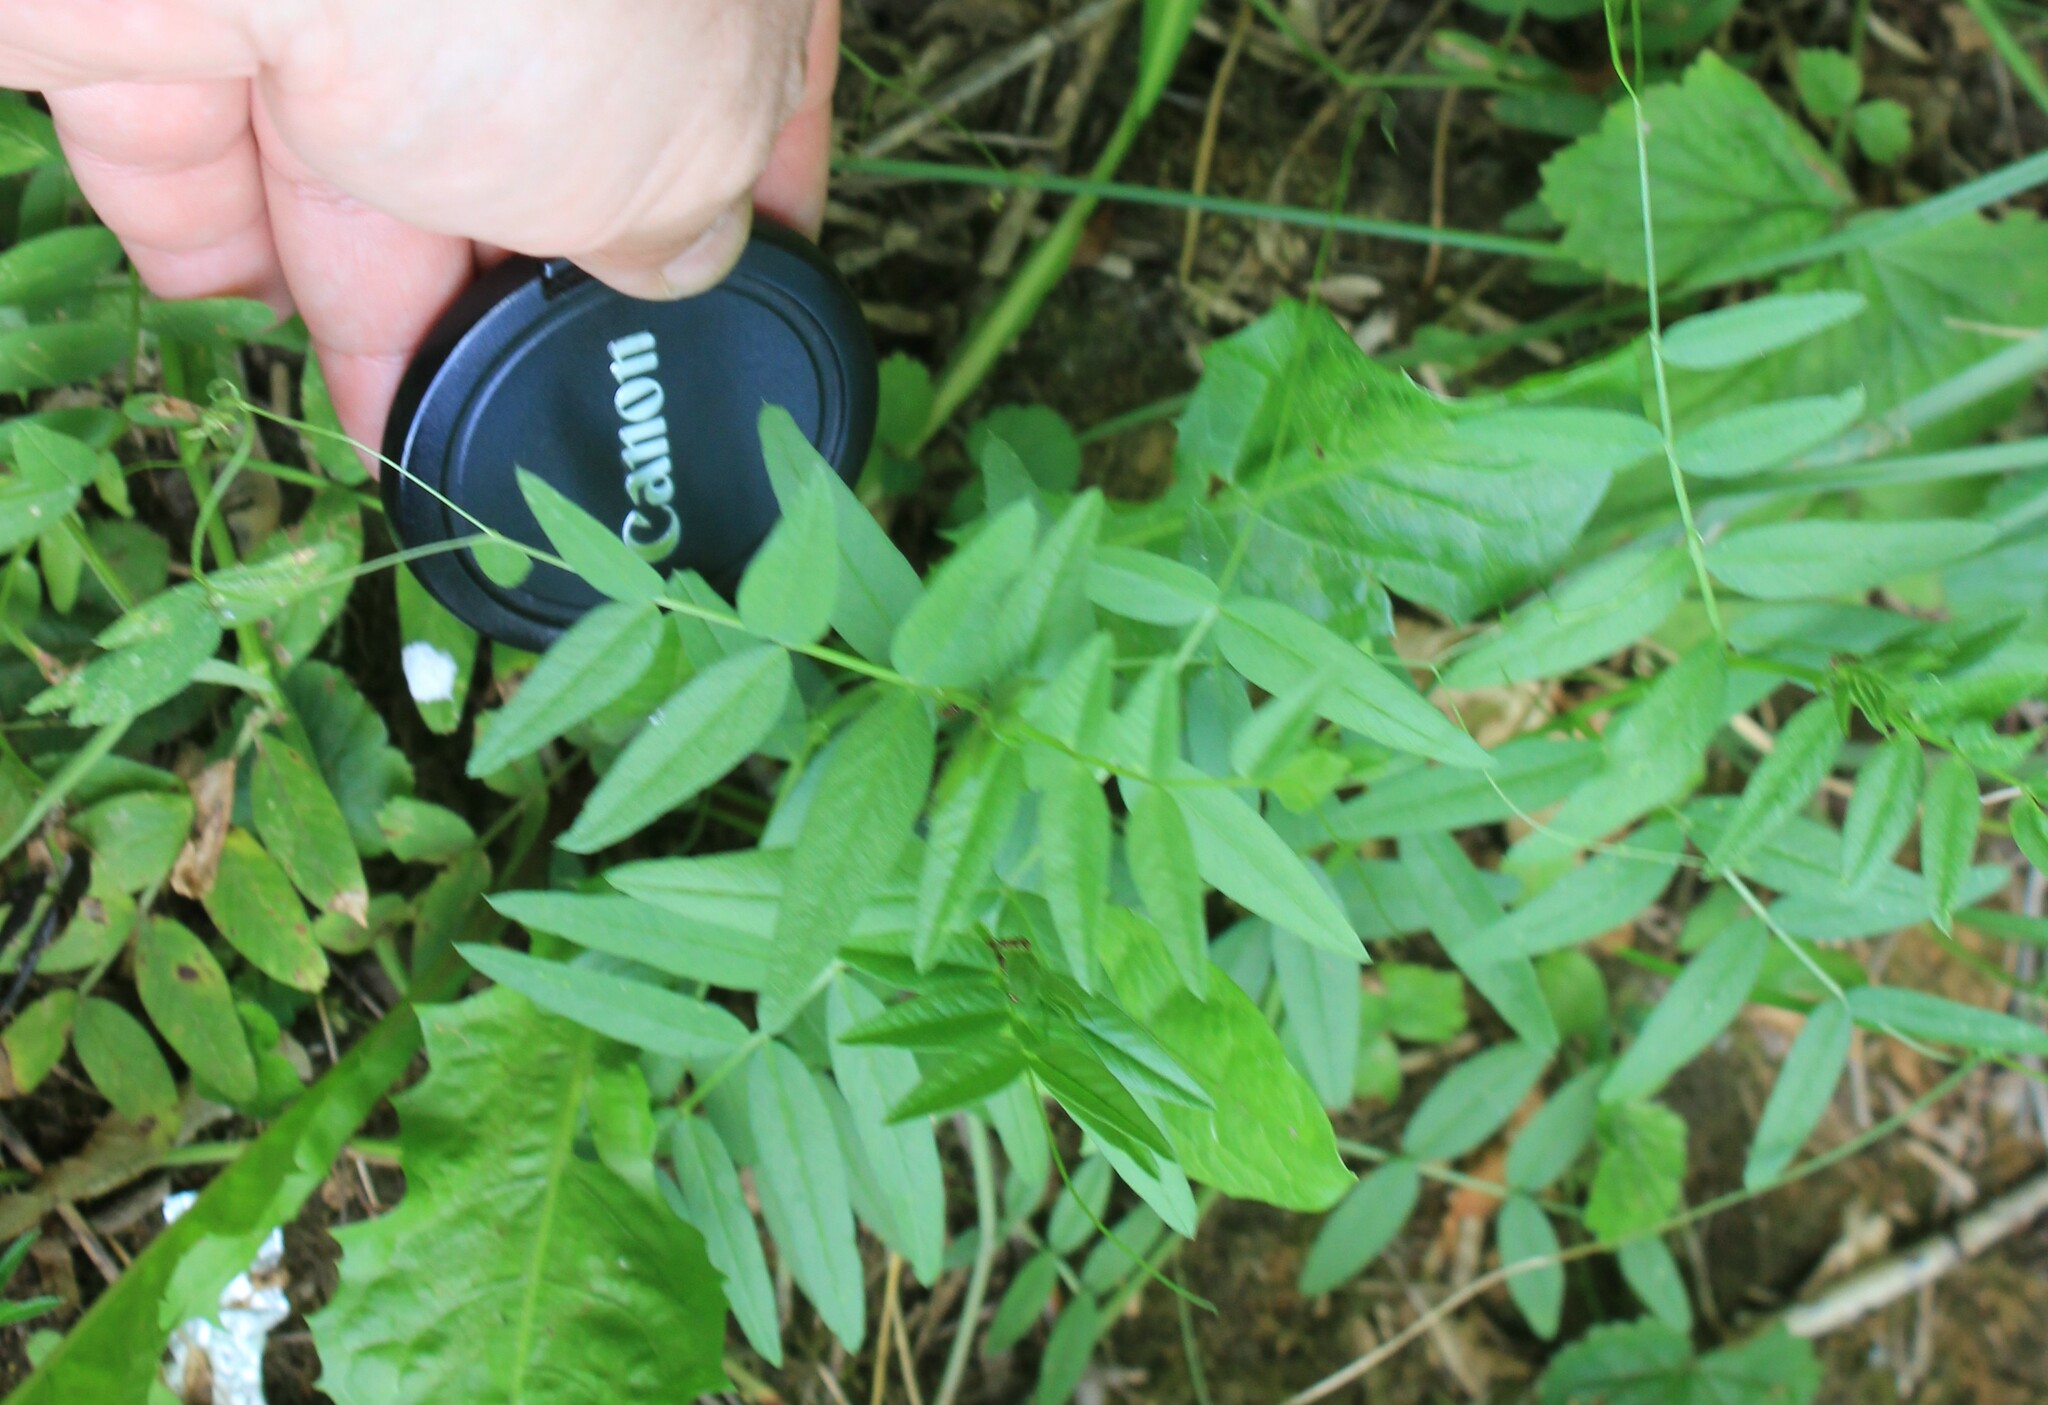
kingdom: Plantae
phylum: Tracheophyta
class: Magnoliopsida
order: Fabales
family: Fabaceae
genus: Vicia
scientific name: Vicia sepium
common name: Bush vetch
